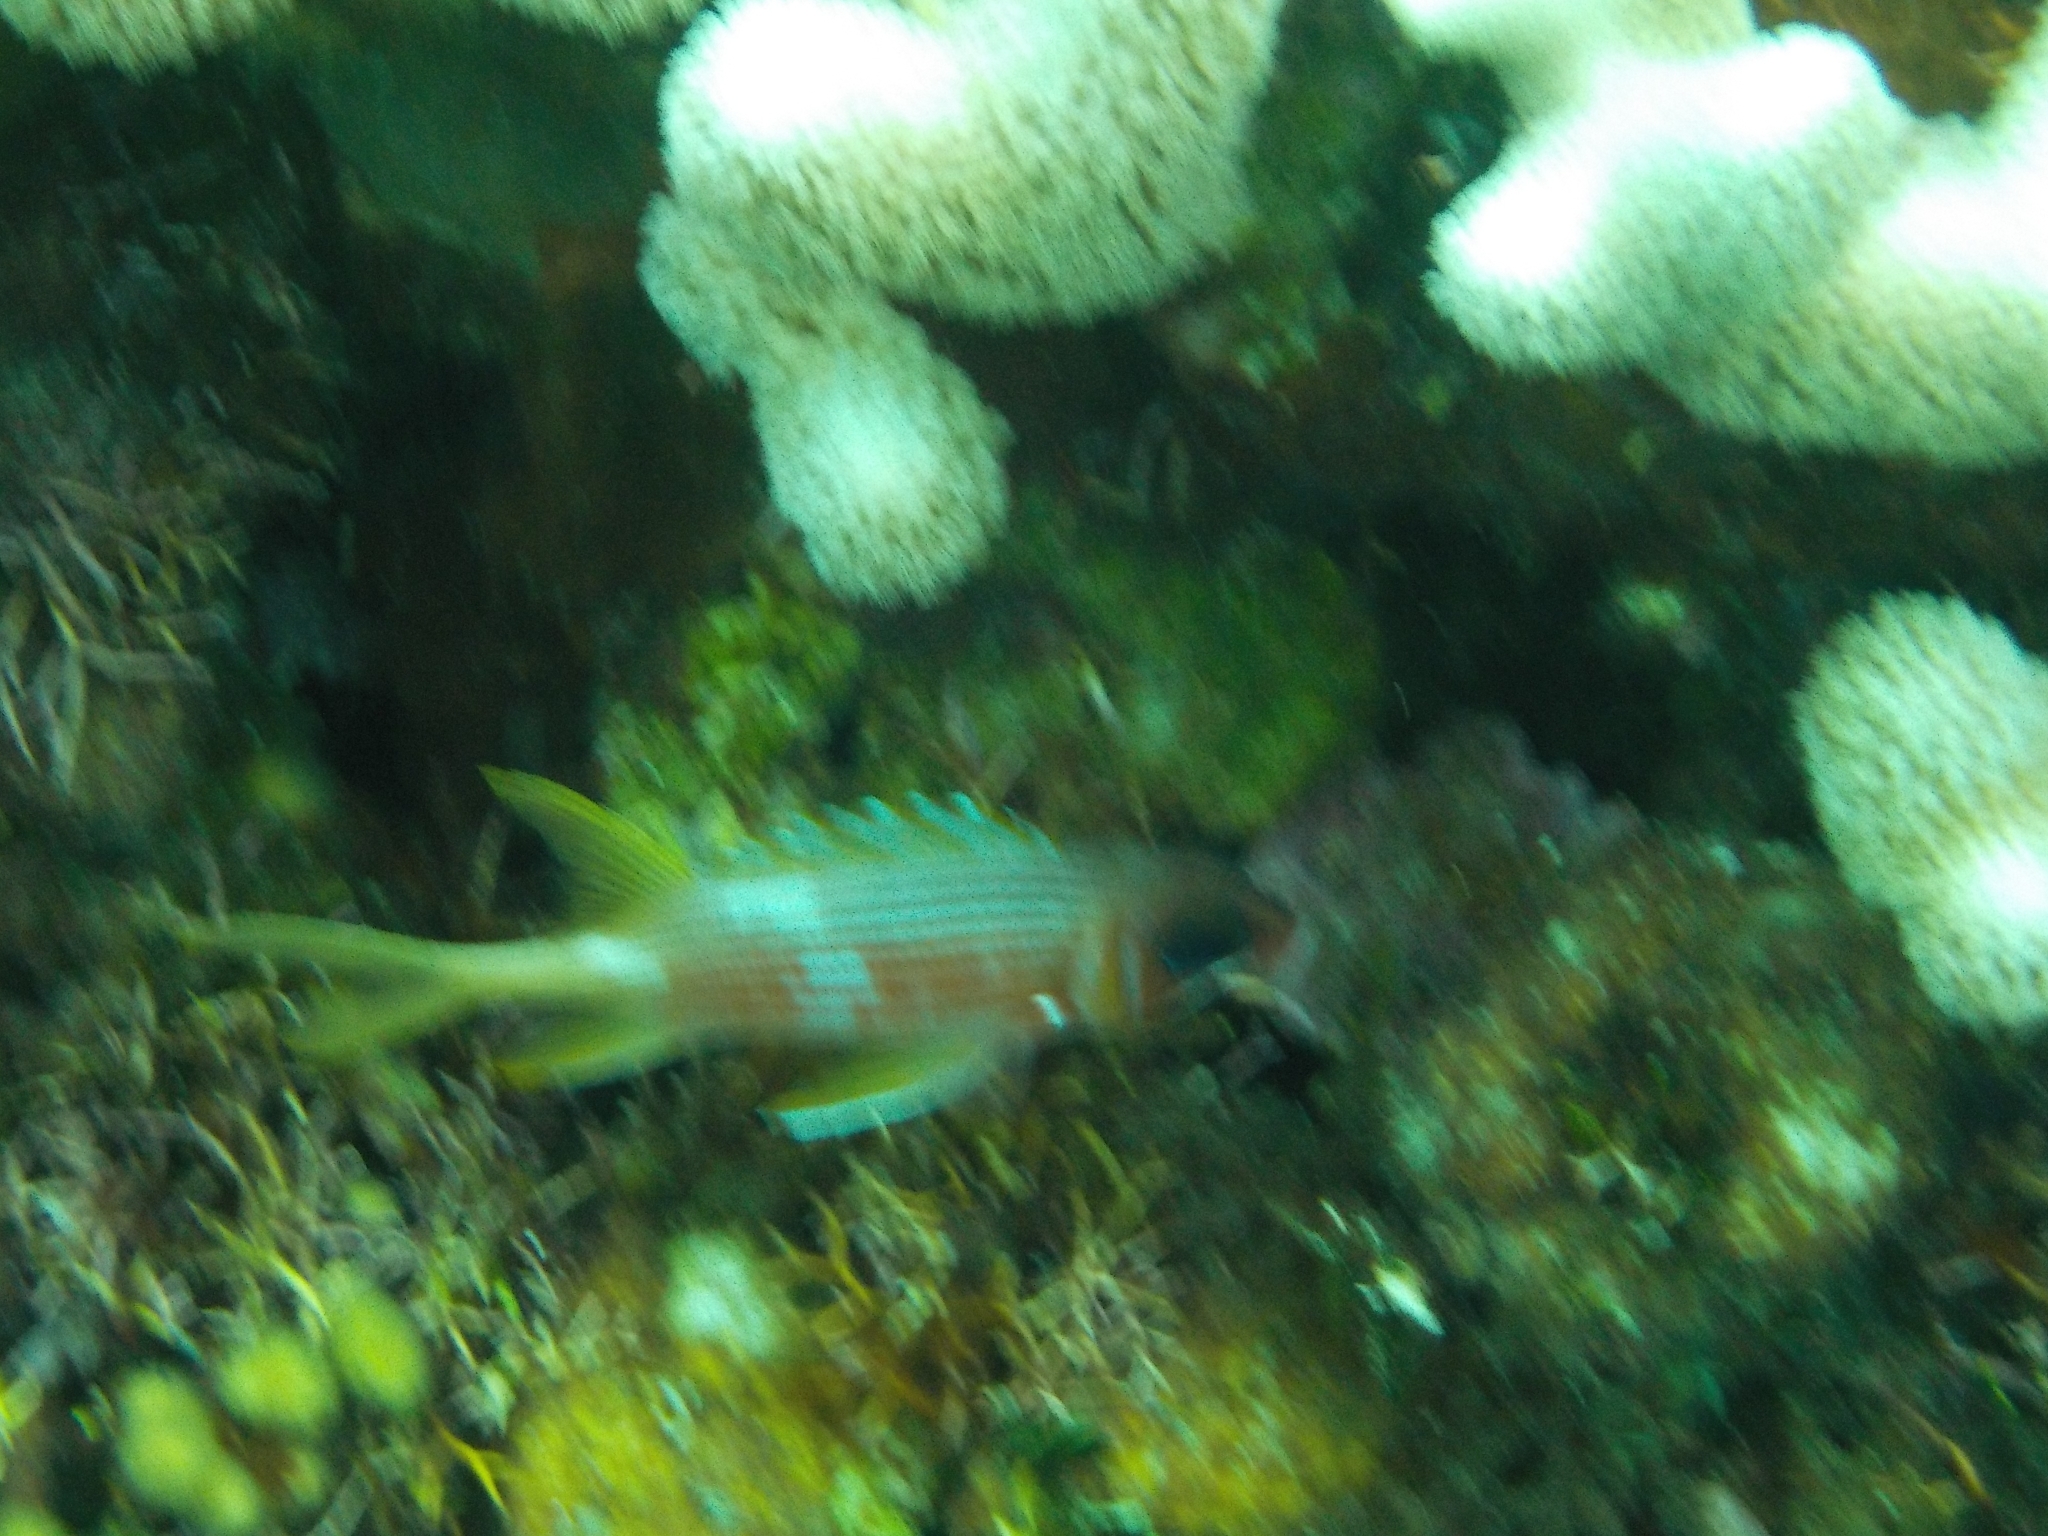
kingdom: Animalia
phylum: Chordata
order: Beryciformes
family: Holocentridae
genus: Holocentrus
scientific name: Holocentrus rufus
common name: Longspine squirrelfish
